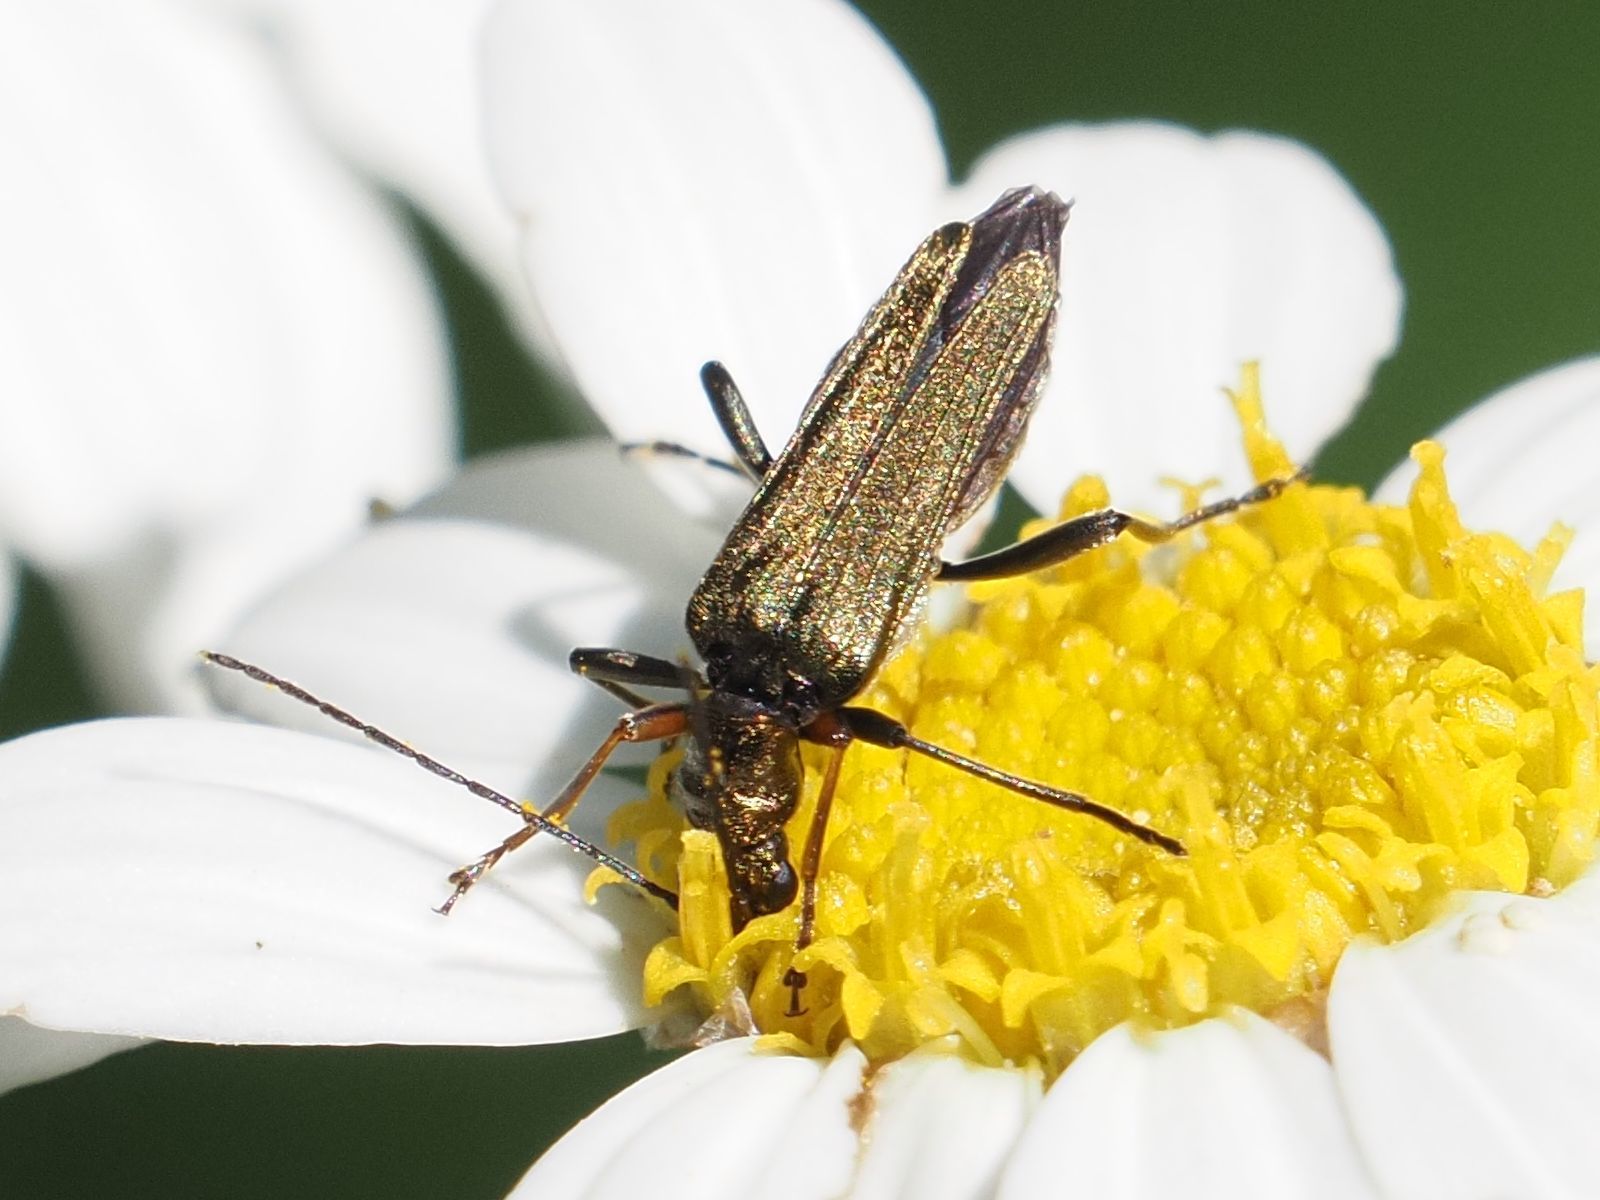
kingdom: Animalia
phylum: Arthropoda
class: Insecta
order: Coleoptera
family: Oedemeridae
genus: Oedemera
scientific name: Oedemera flavipes
